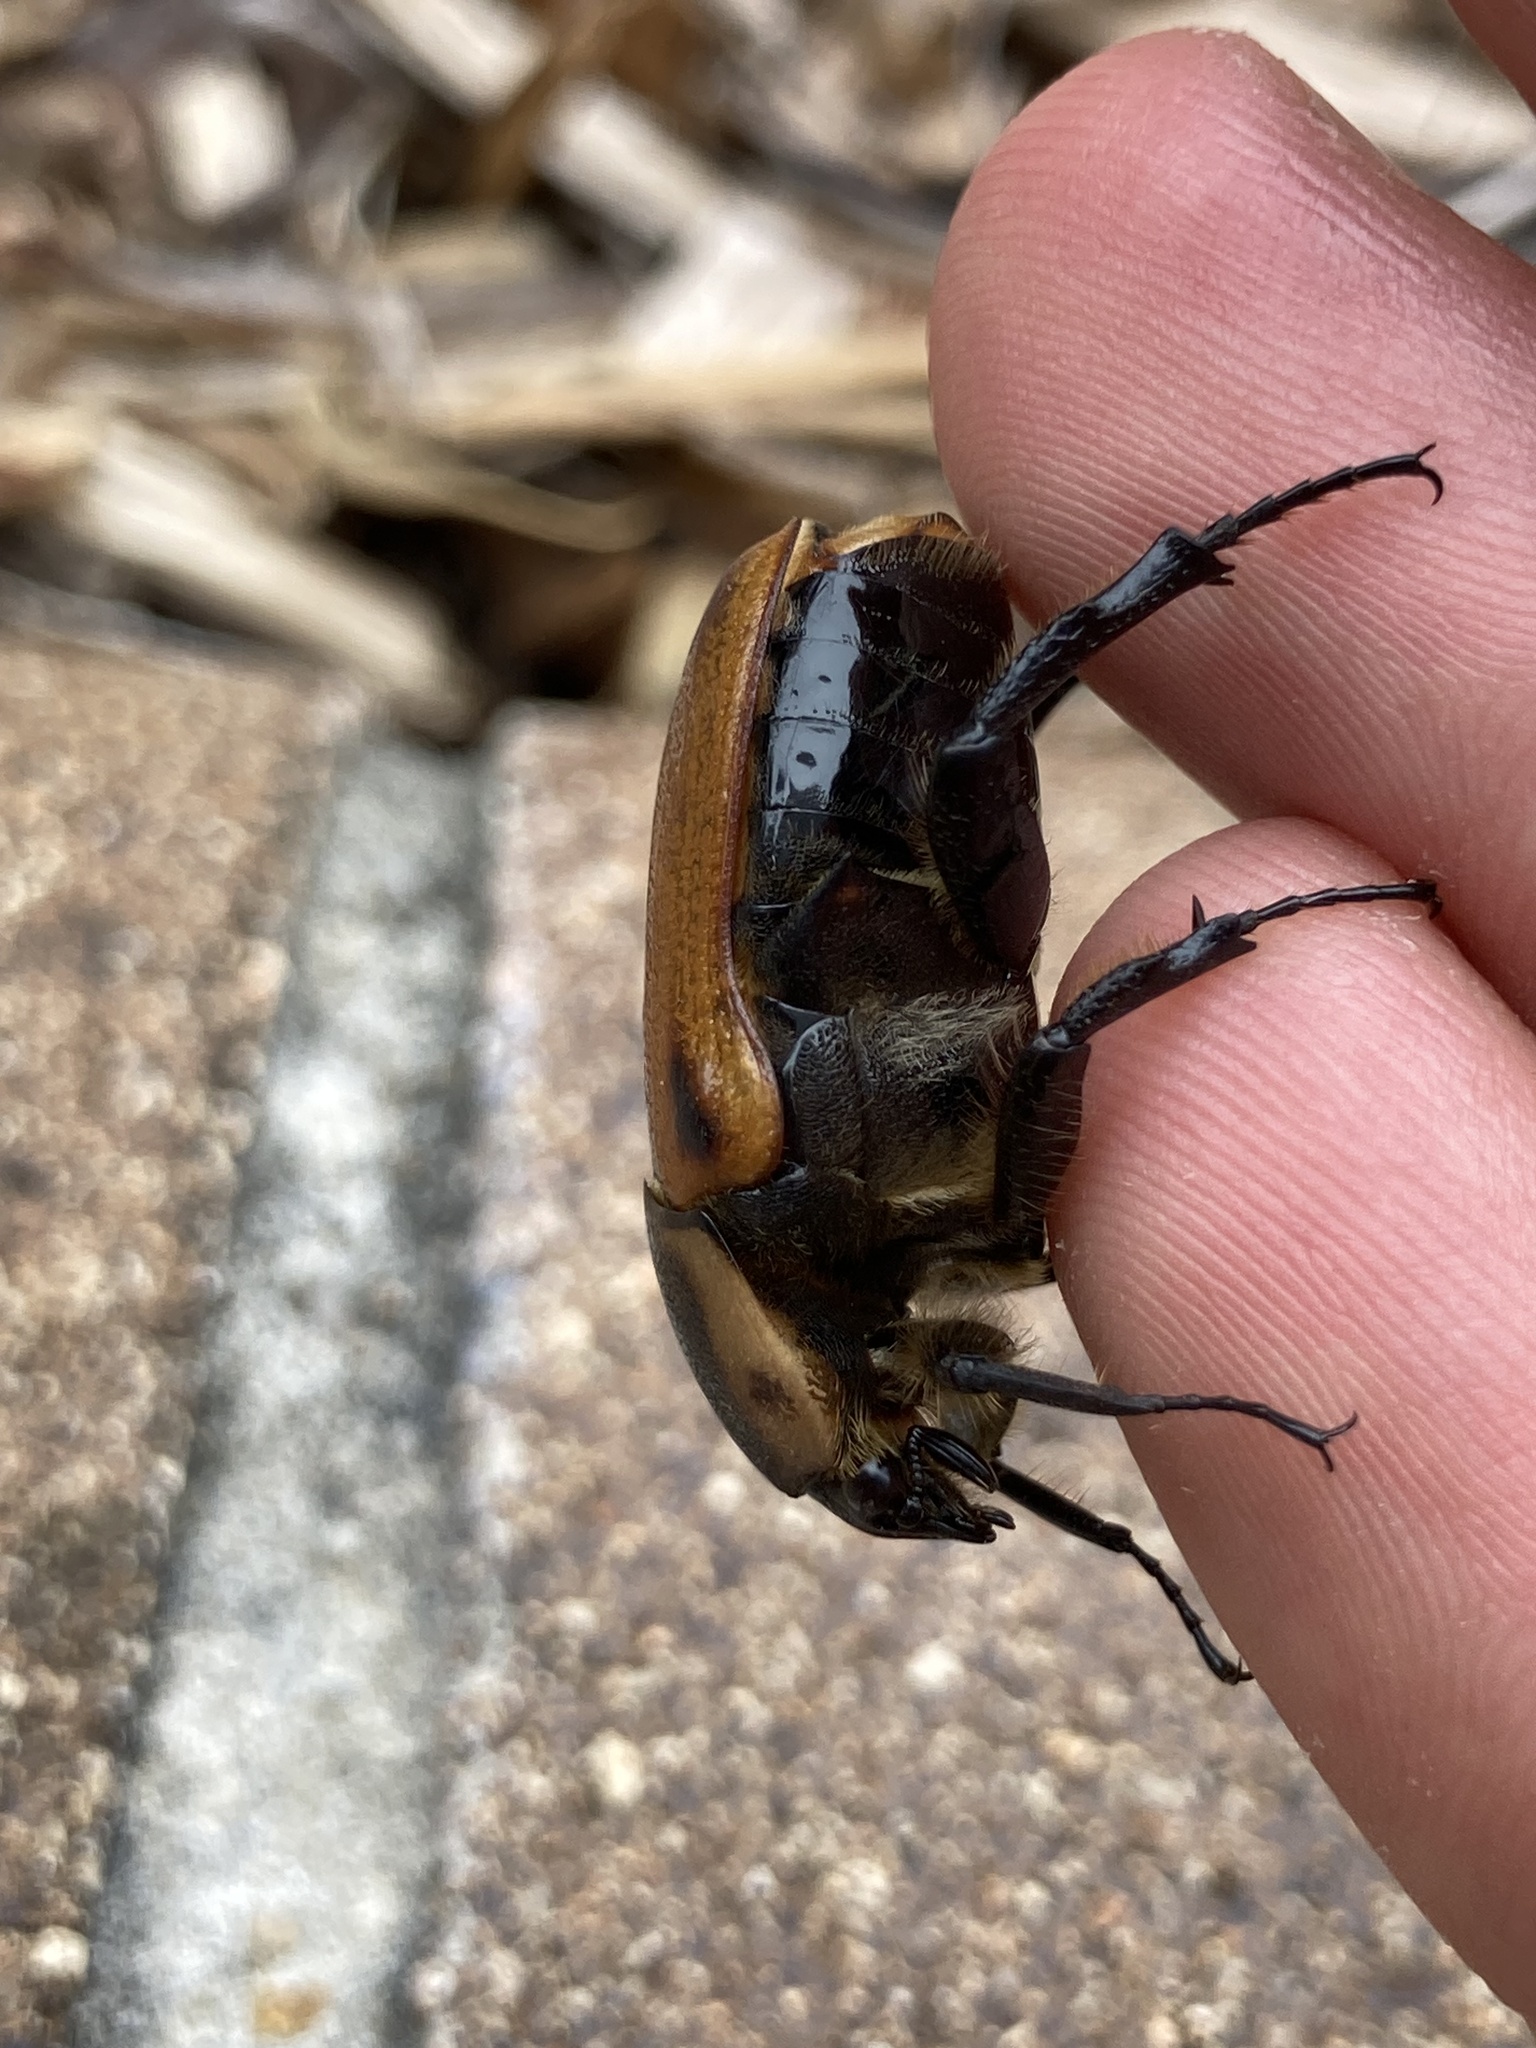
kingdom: Animalia
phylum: Arthropoda
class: Insecta
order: Coleoptera
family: Scarabaeidae
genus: Chondropyga
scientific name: Chondropyga dorsalis
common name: Cowboy beetle
